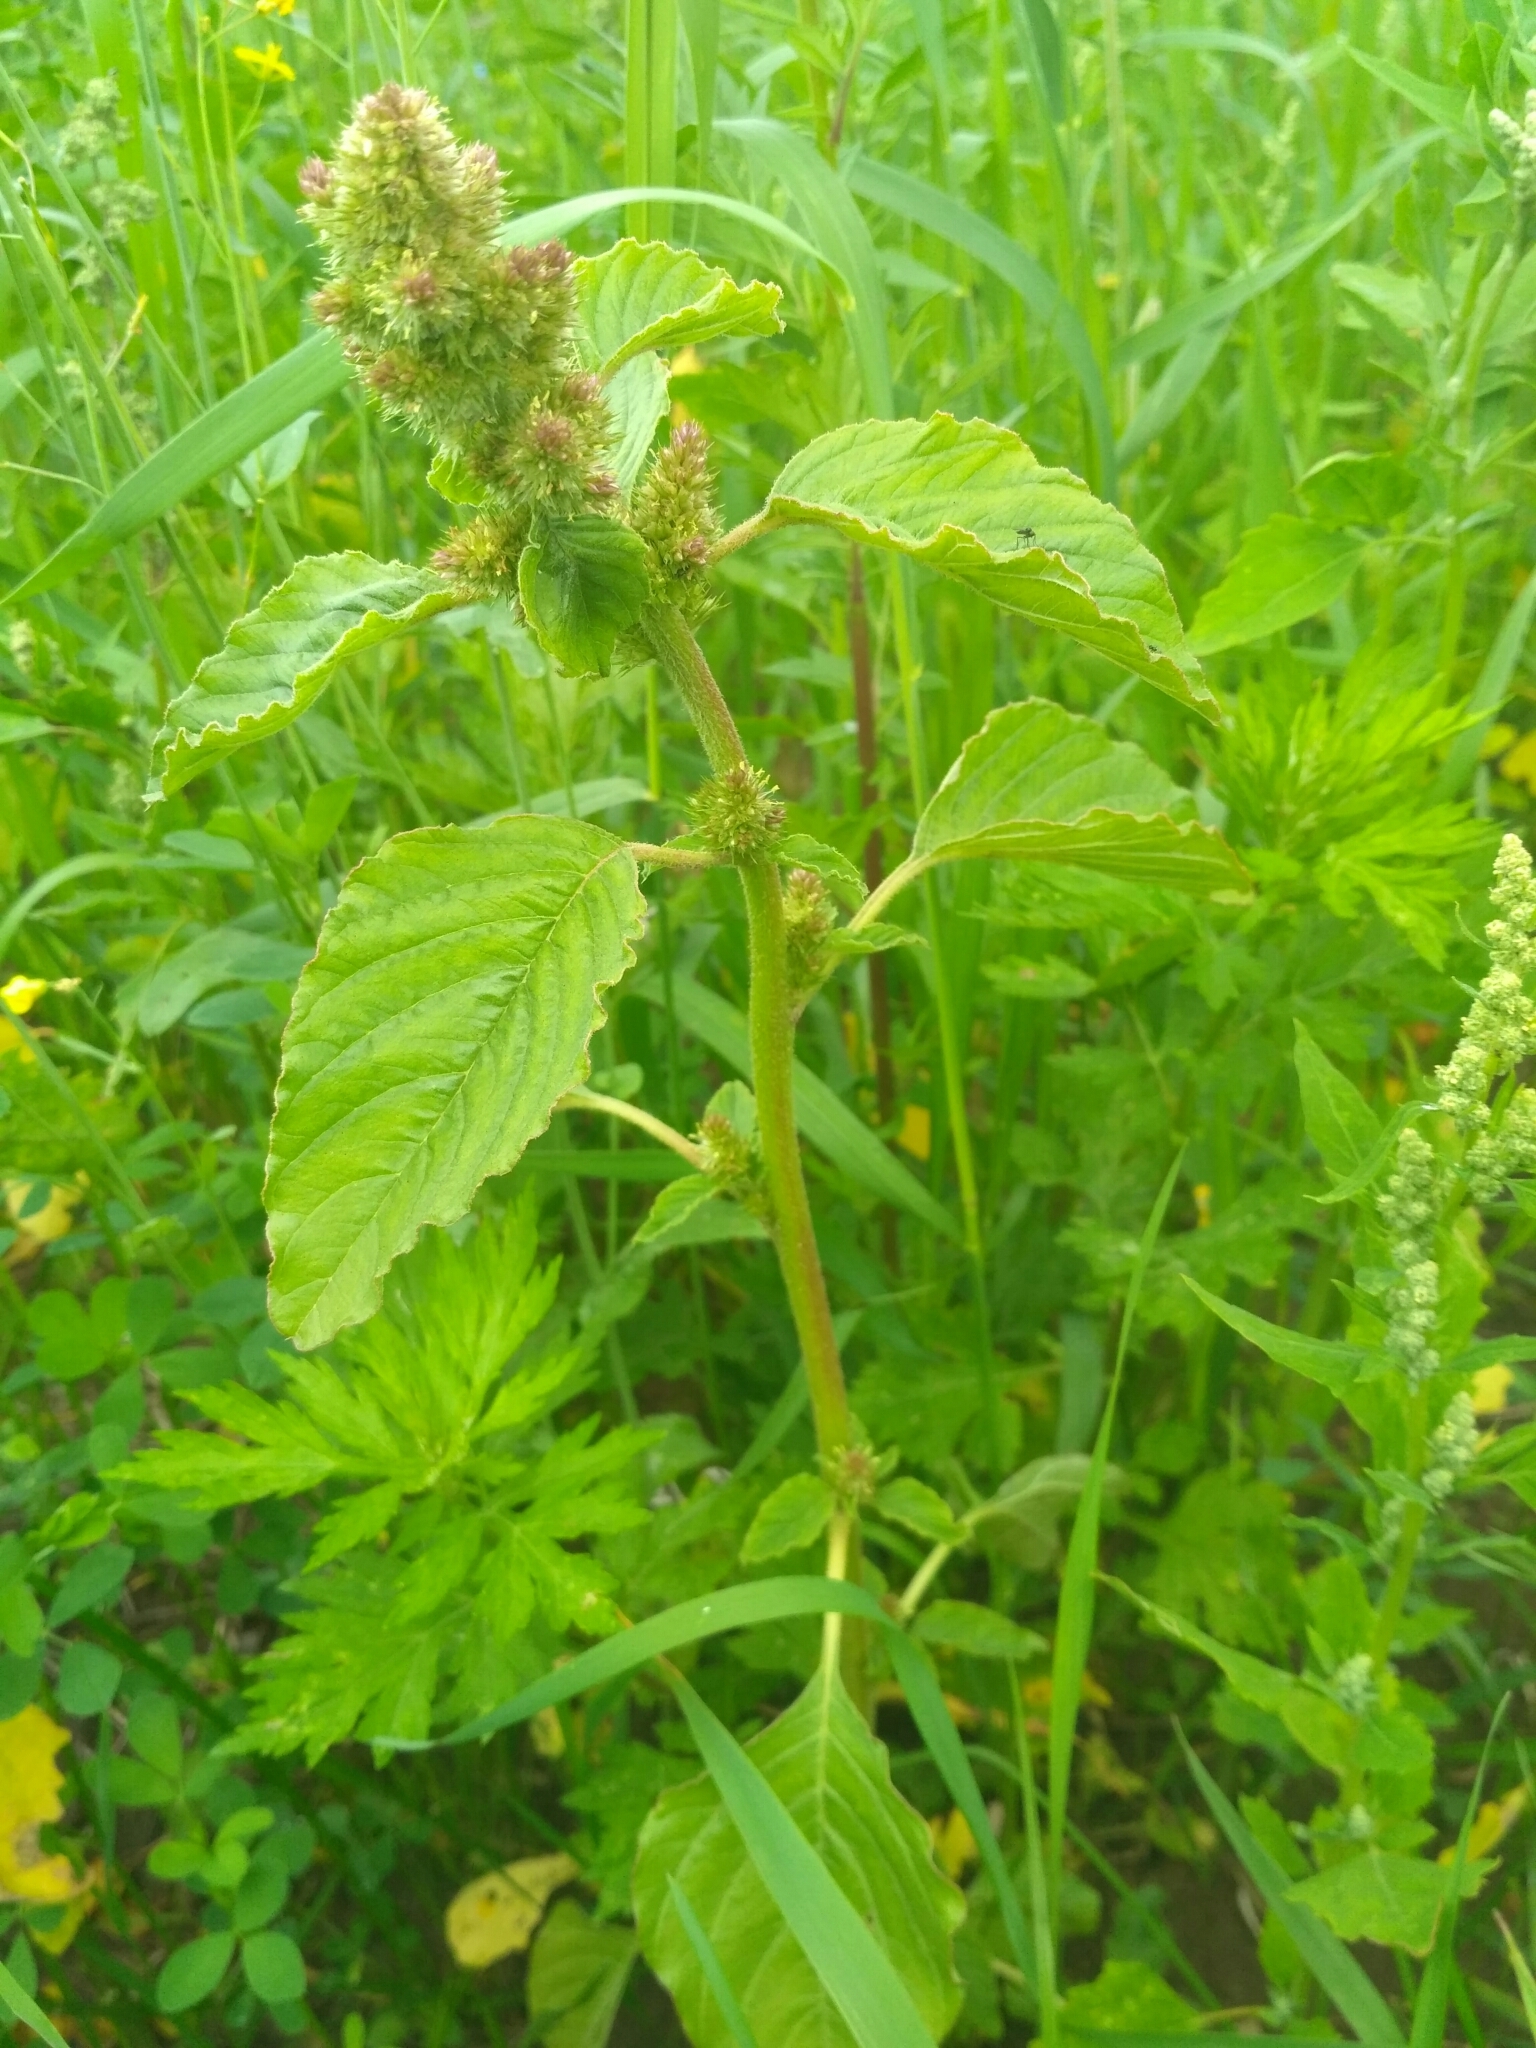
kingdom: Plantae
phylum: Tracheophyta
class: Magnoliopsida
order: Caryophyllales
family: Amaranthaceae
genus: Amaranthus
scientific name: Amaranthus retroflexus
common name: Redroot amaranth
